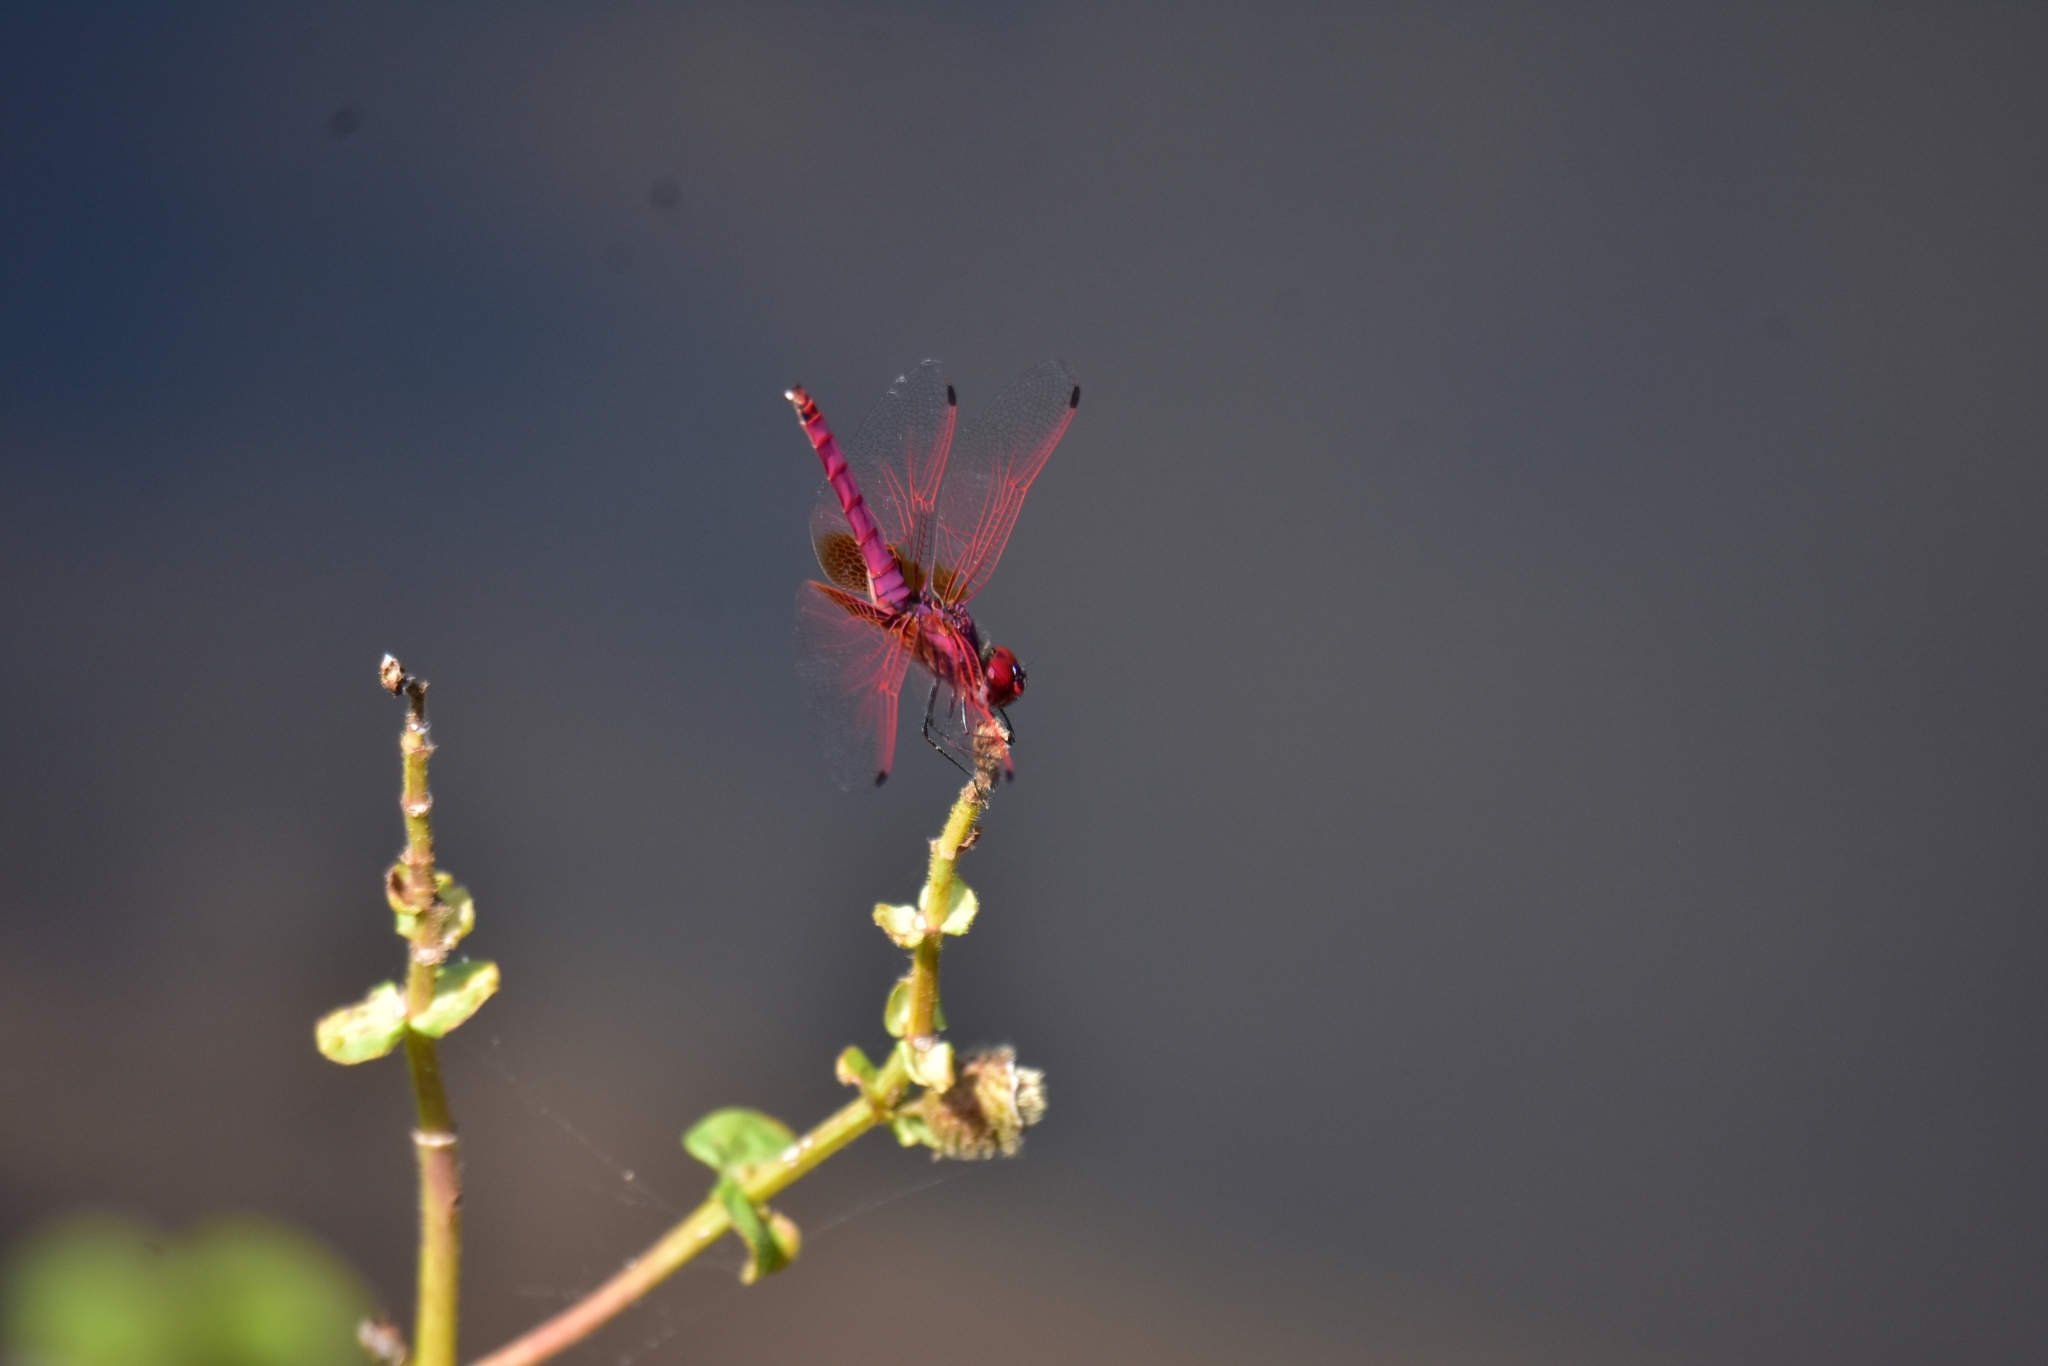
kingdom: Animalia
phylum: Arthropoda
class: Insecta
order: Odonata
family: Libellulidae
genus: Trithemis
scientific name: Trithemis aurora
